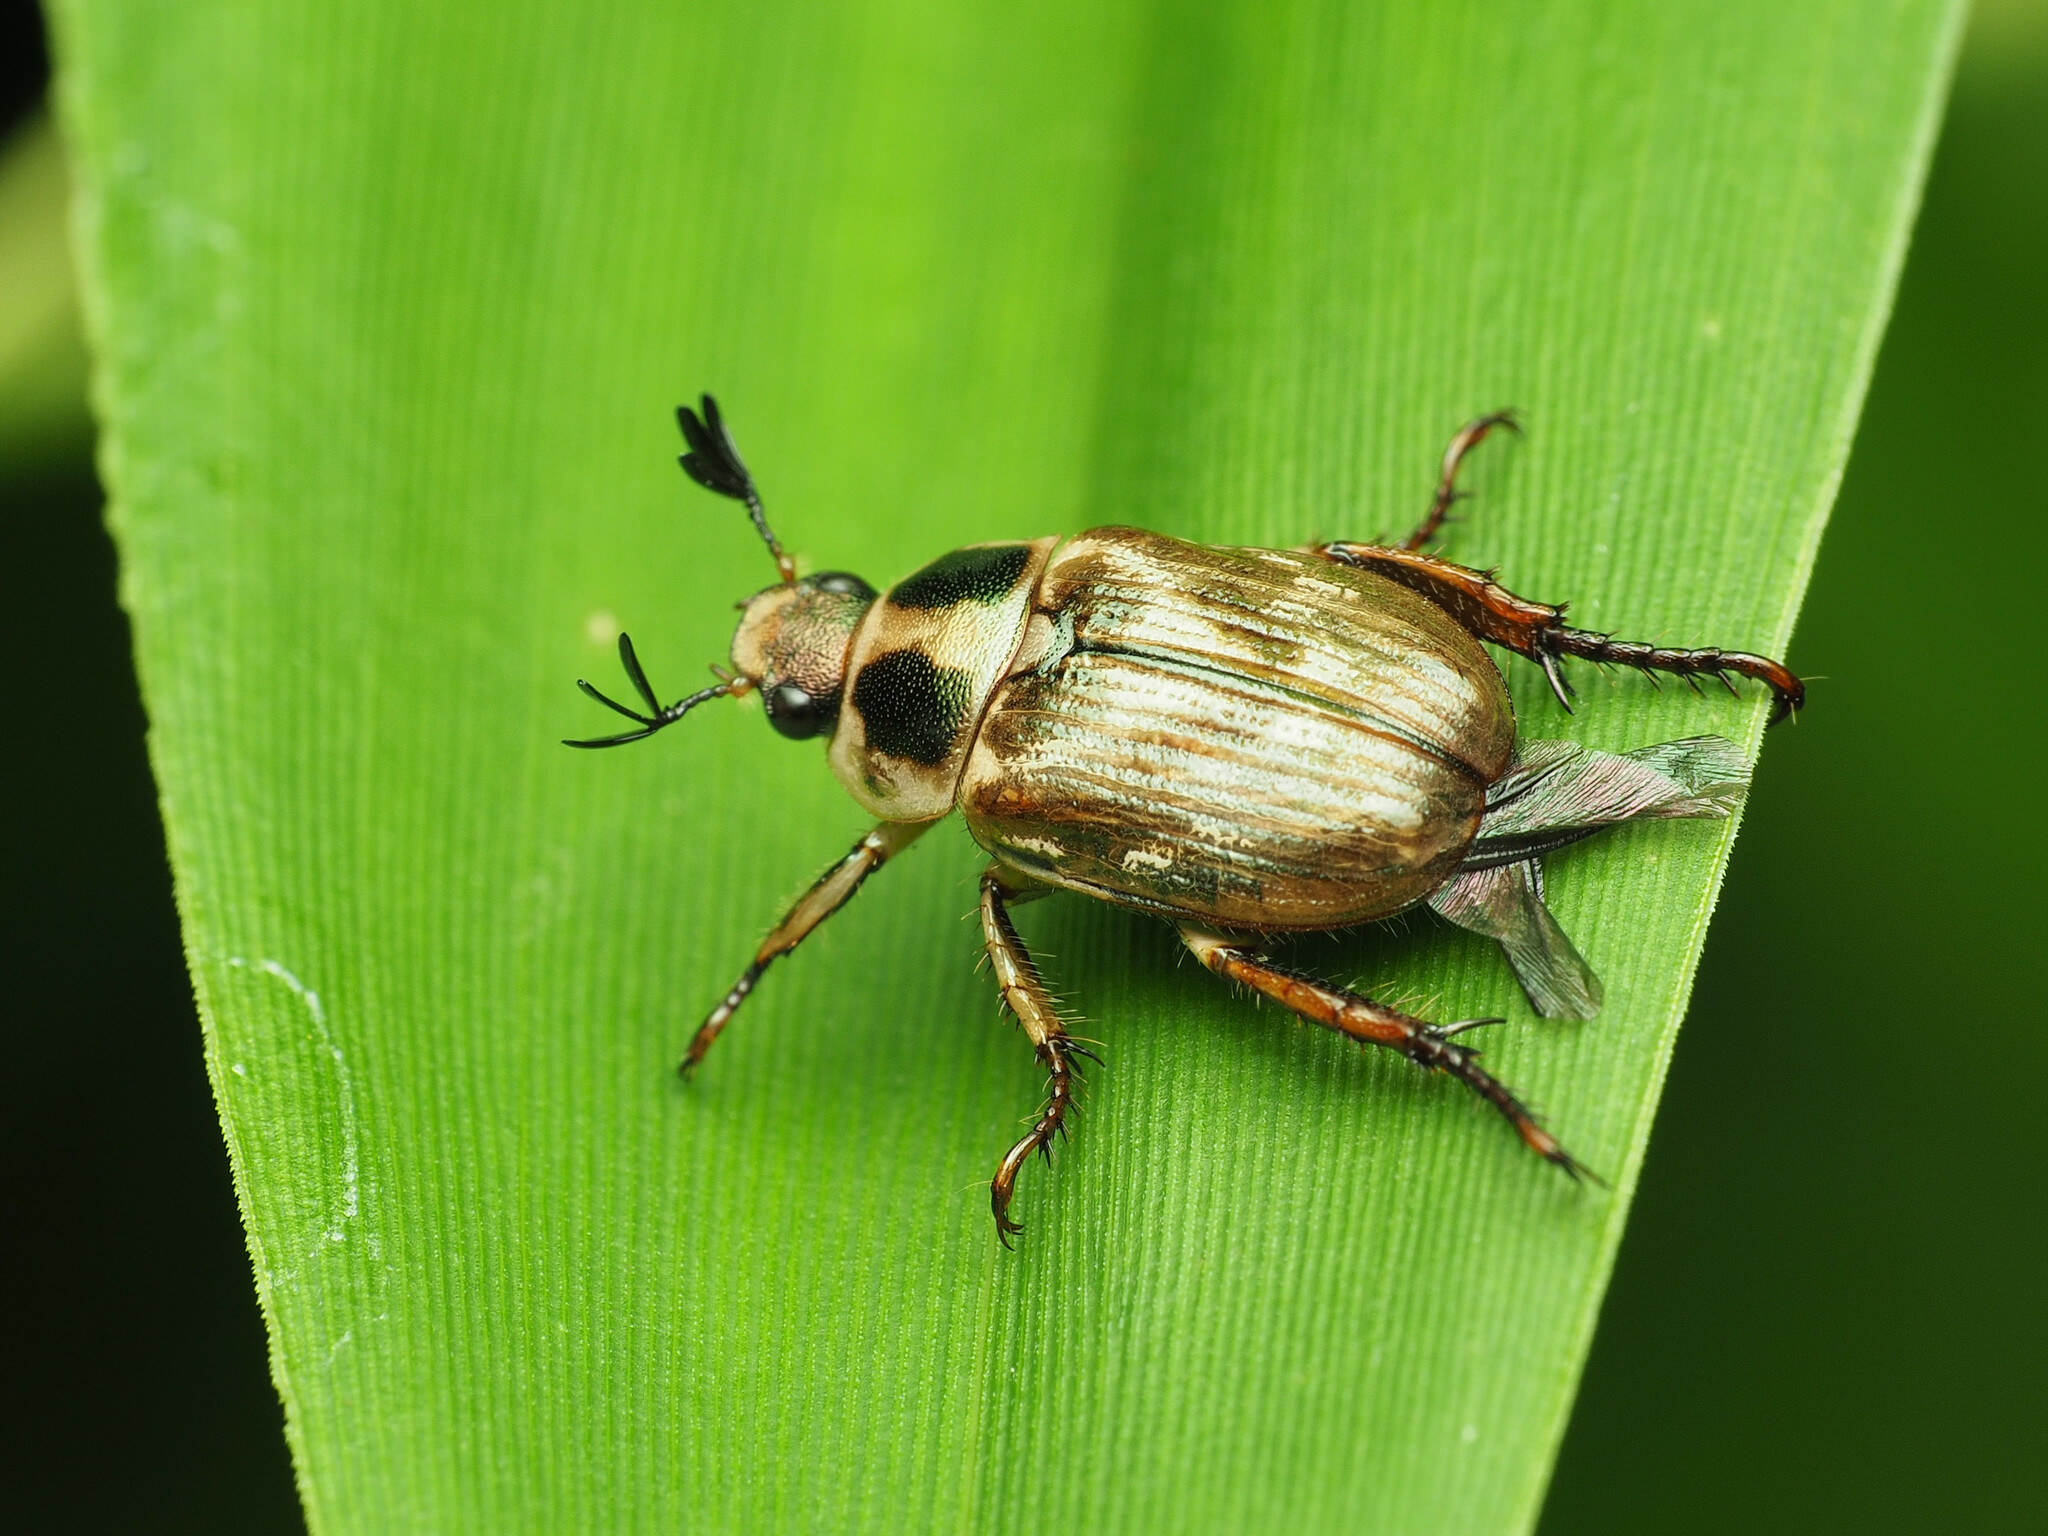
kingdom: Animalia
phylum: Arthropoda
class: Insecta
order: Coleoptera
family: Scarabaeidae
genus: Exomala
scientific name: Exomala orientalis
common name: Oriental beetle
